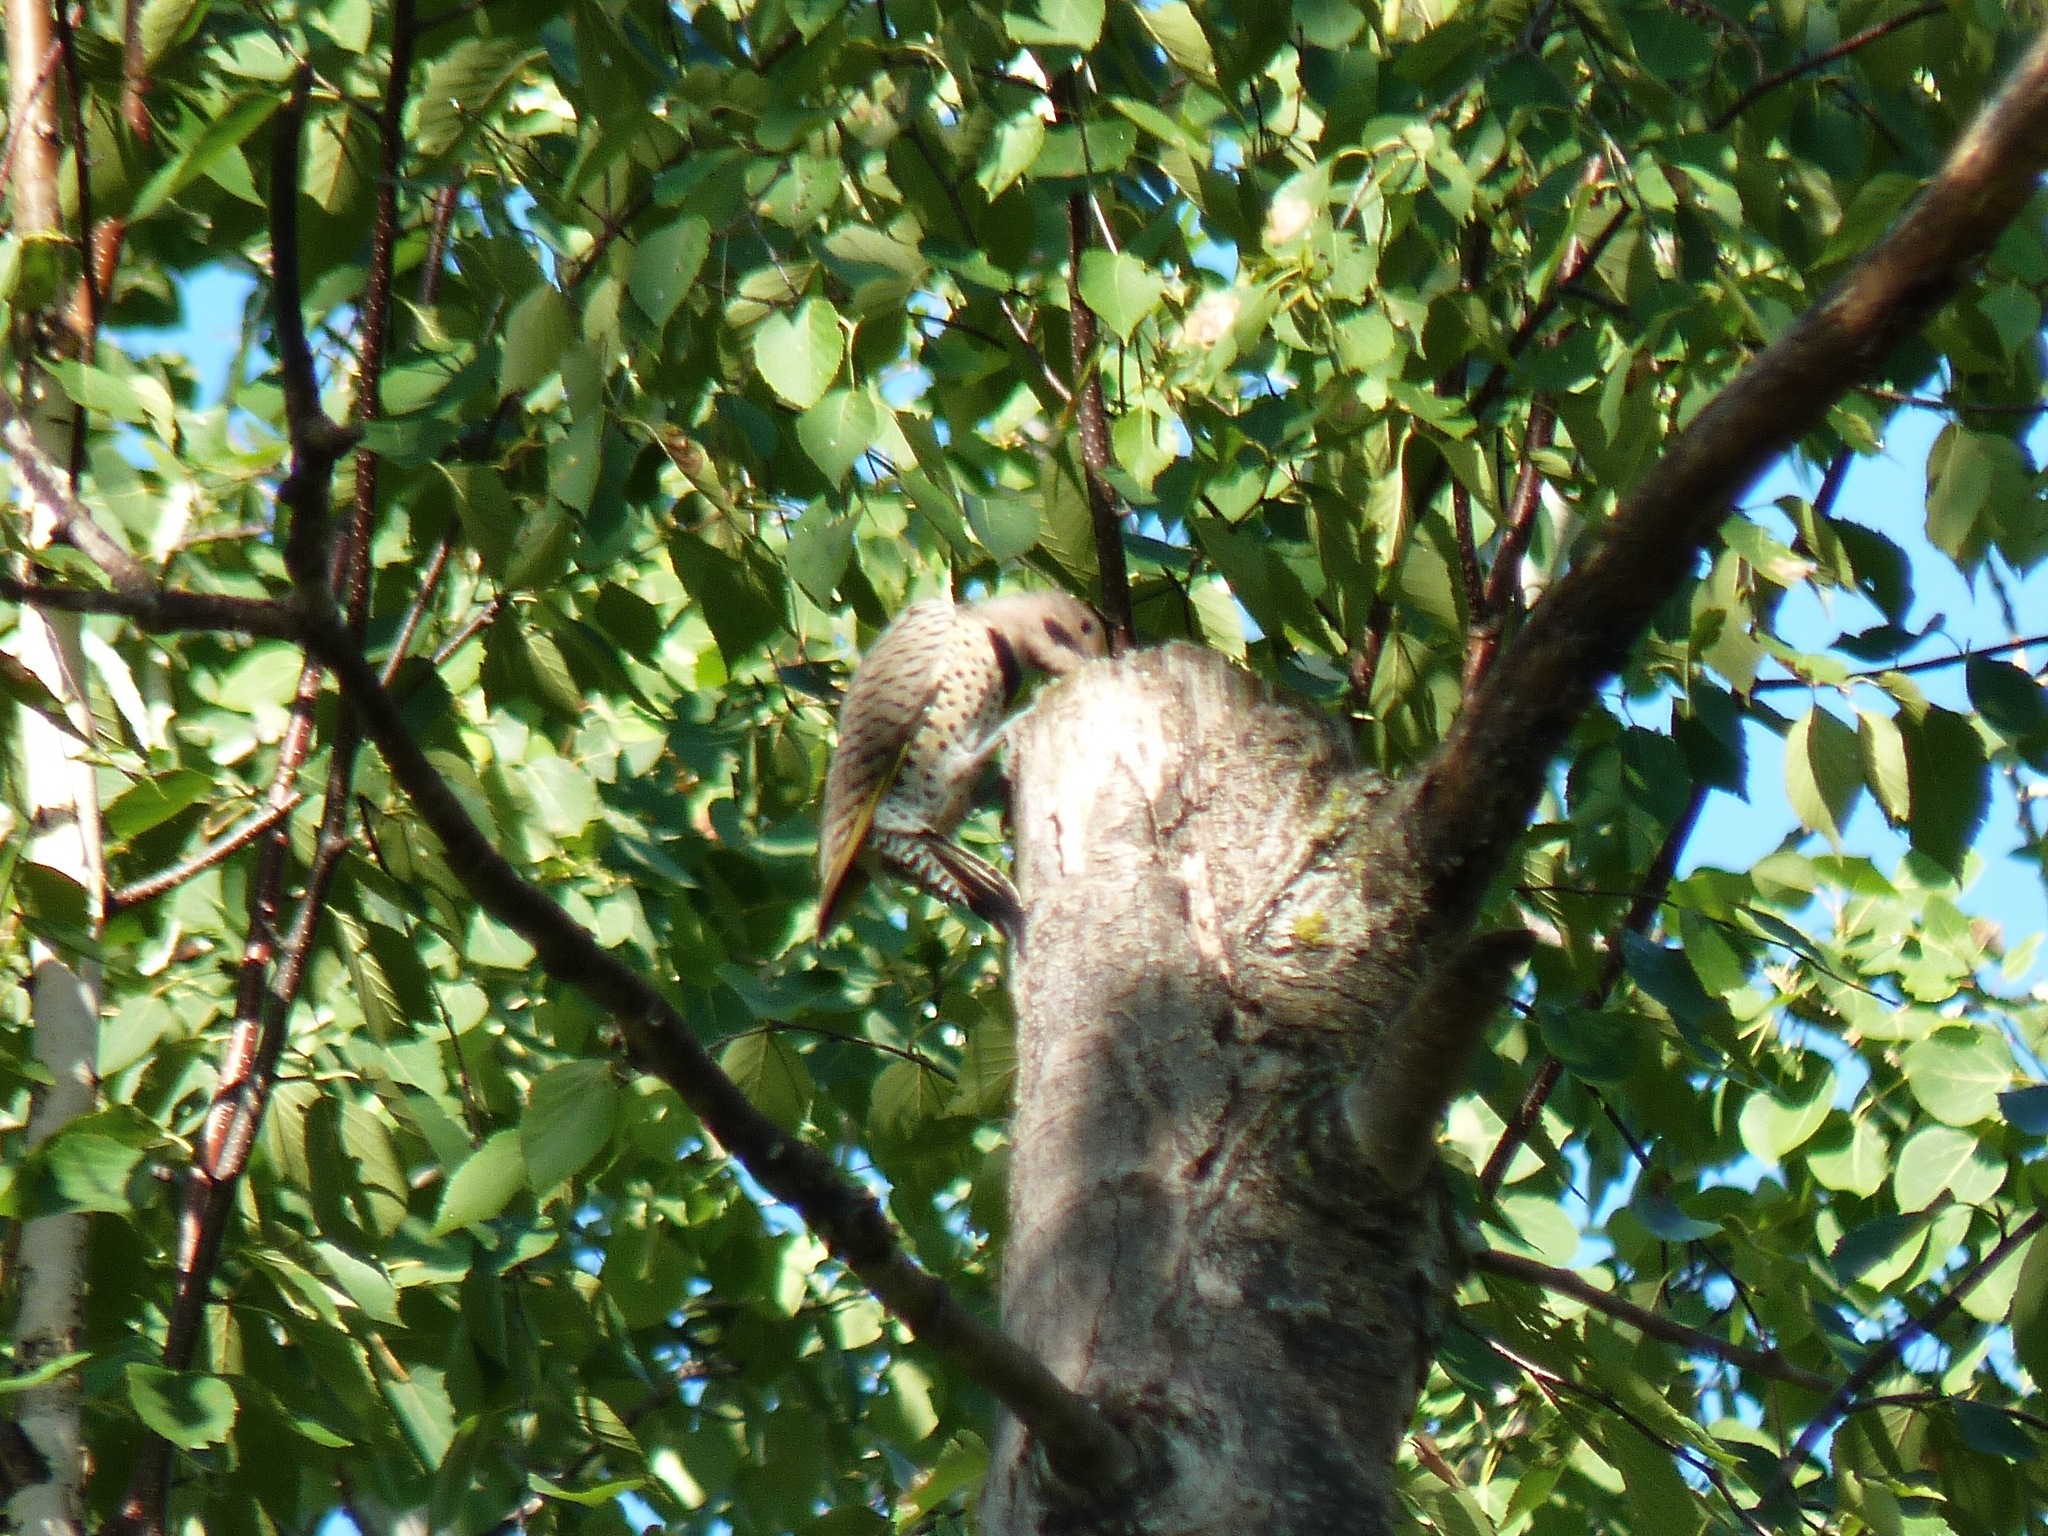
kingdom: Animalia
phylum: Chordata
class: Aves
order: Piciformes
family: Picidae
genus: Colaptes
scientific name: Colaptes auratus
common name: Northern flicker
